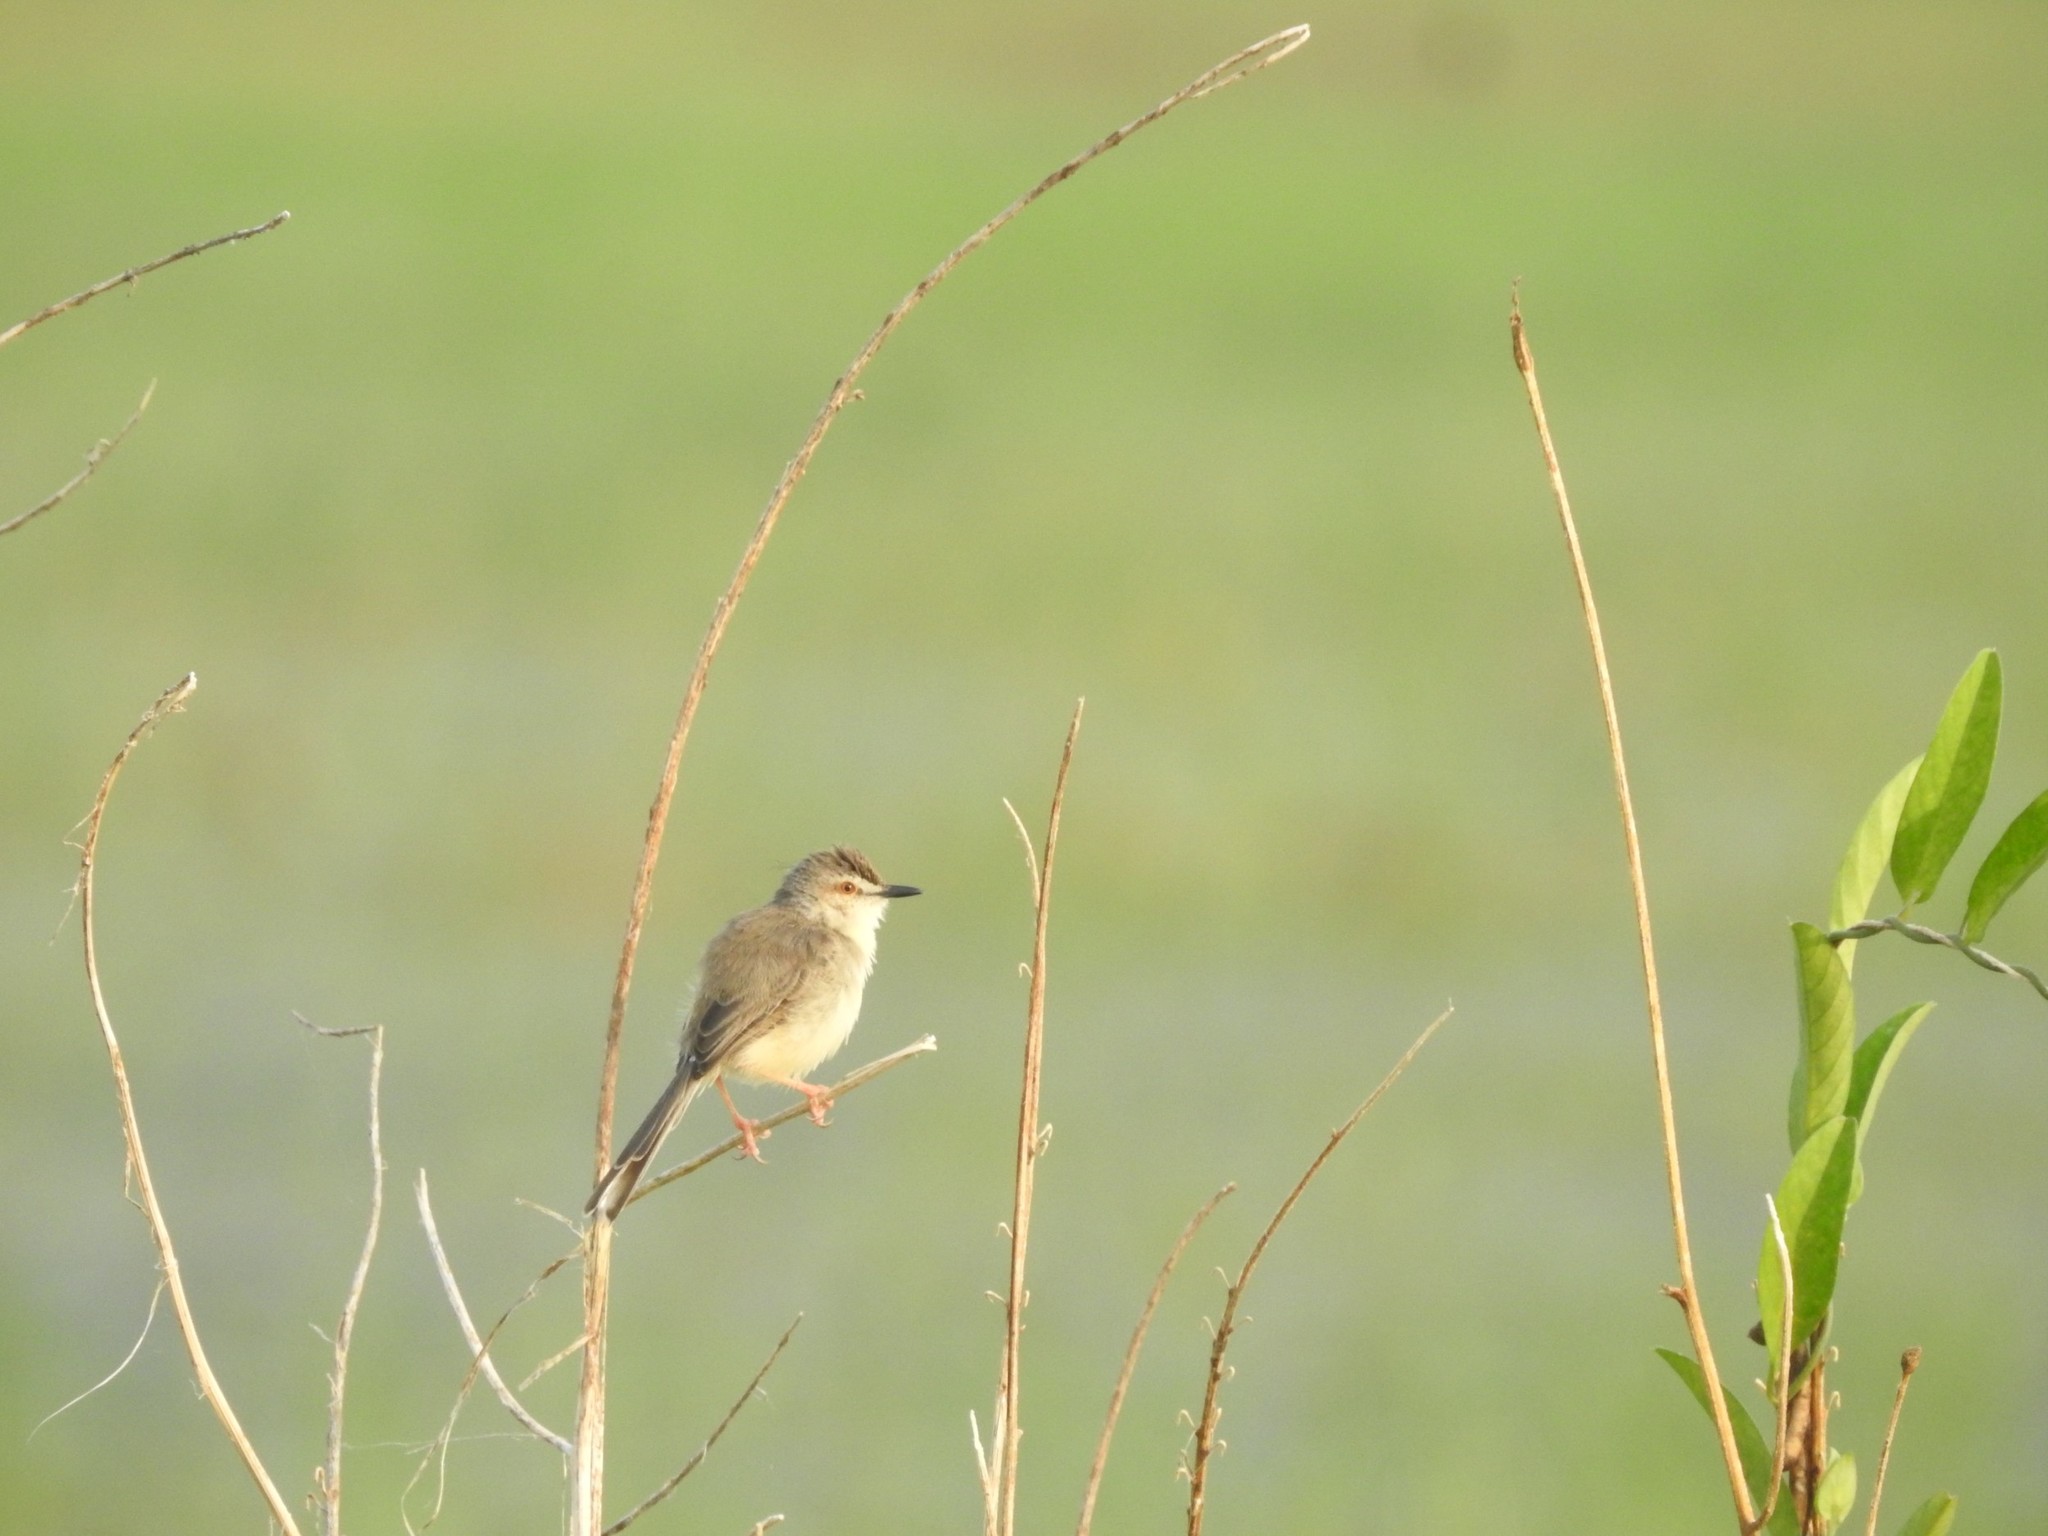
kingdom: Animalia
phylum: Chordata
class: Aves
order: Passeriformes
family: Cisticolidae
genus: Prinia
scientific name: Prinia inornata
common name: Plain prinia
